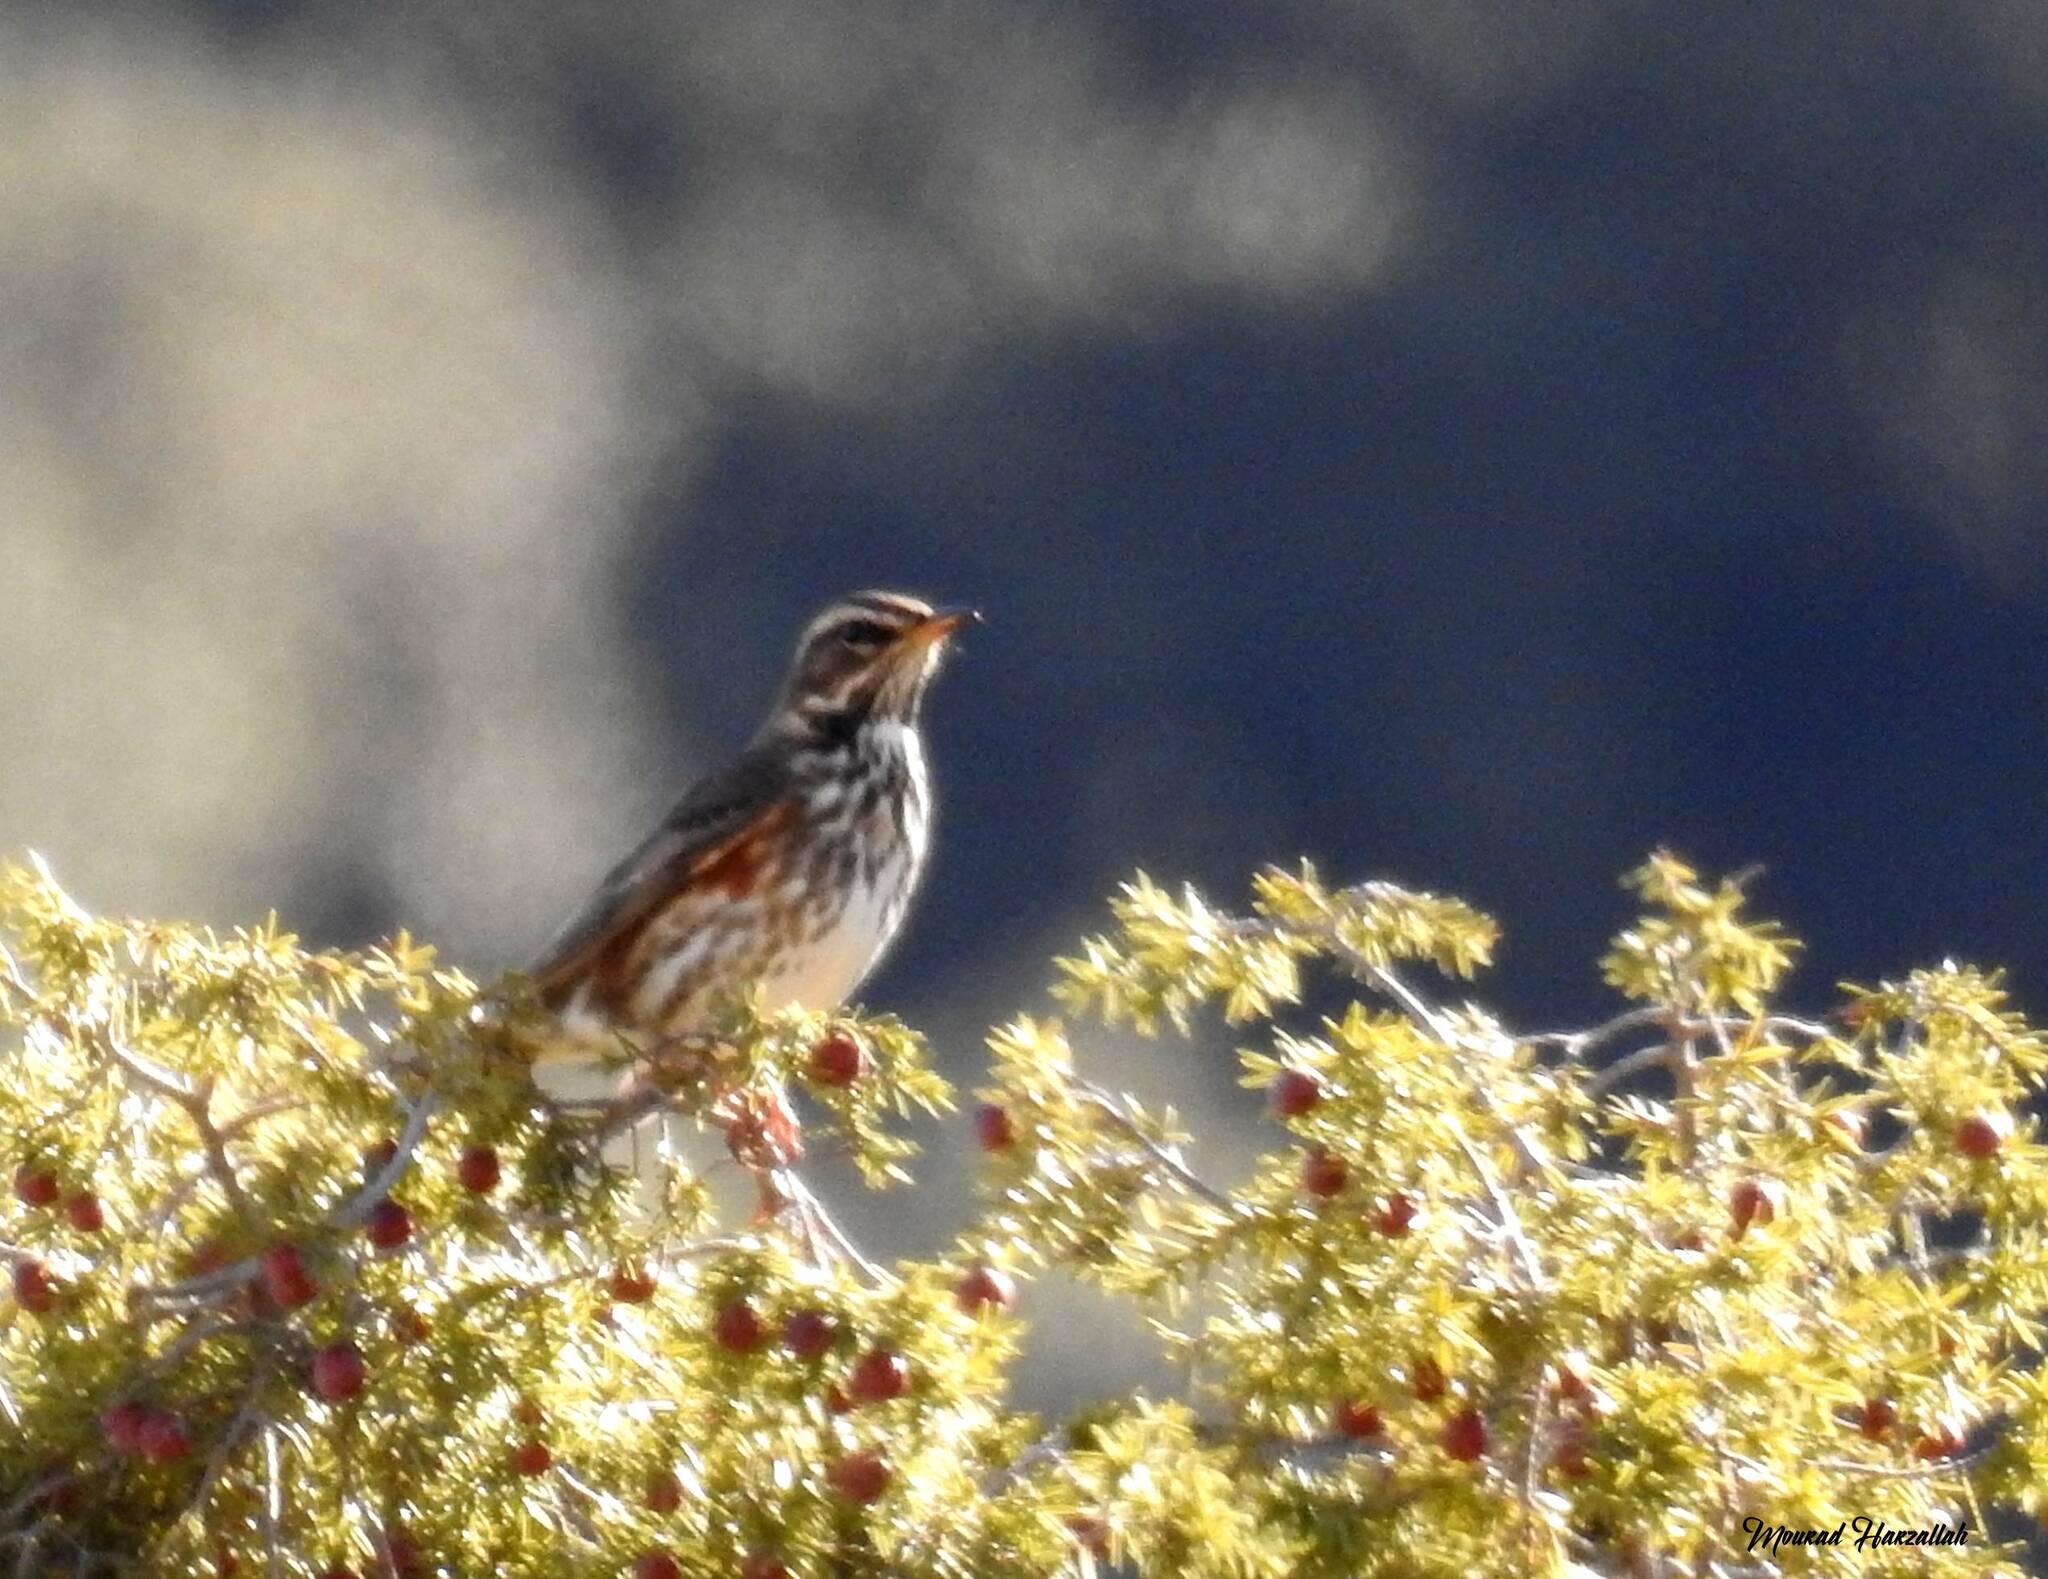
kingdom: Animalia
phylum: Chordata
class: Aves
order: Passeriformes
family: Turdidae
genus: Turdus
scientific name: Turdus iliacus
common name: Redwing
